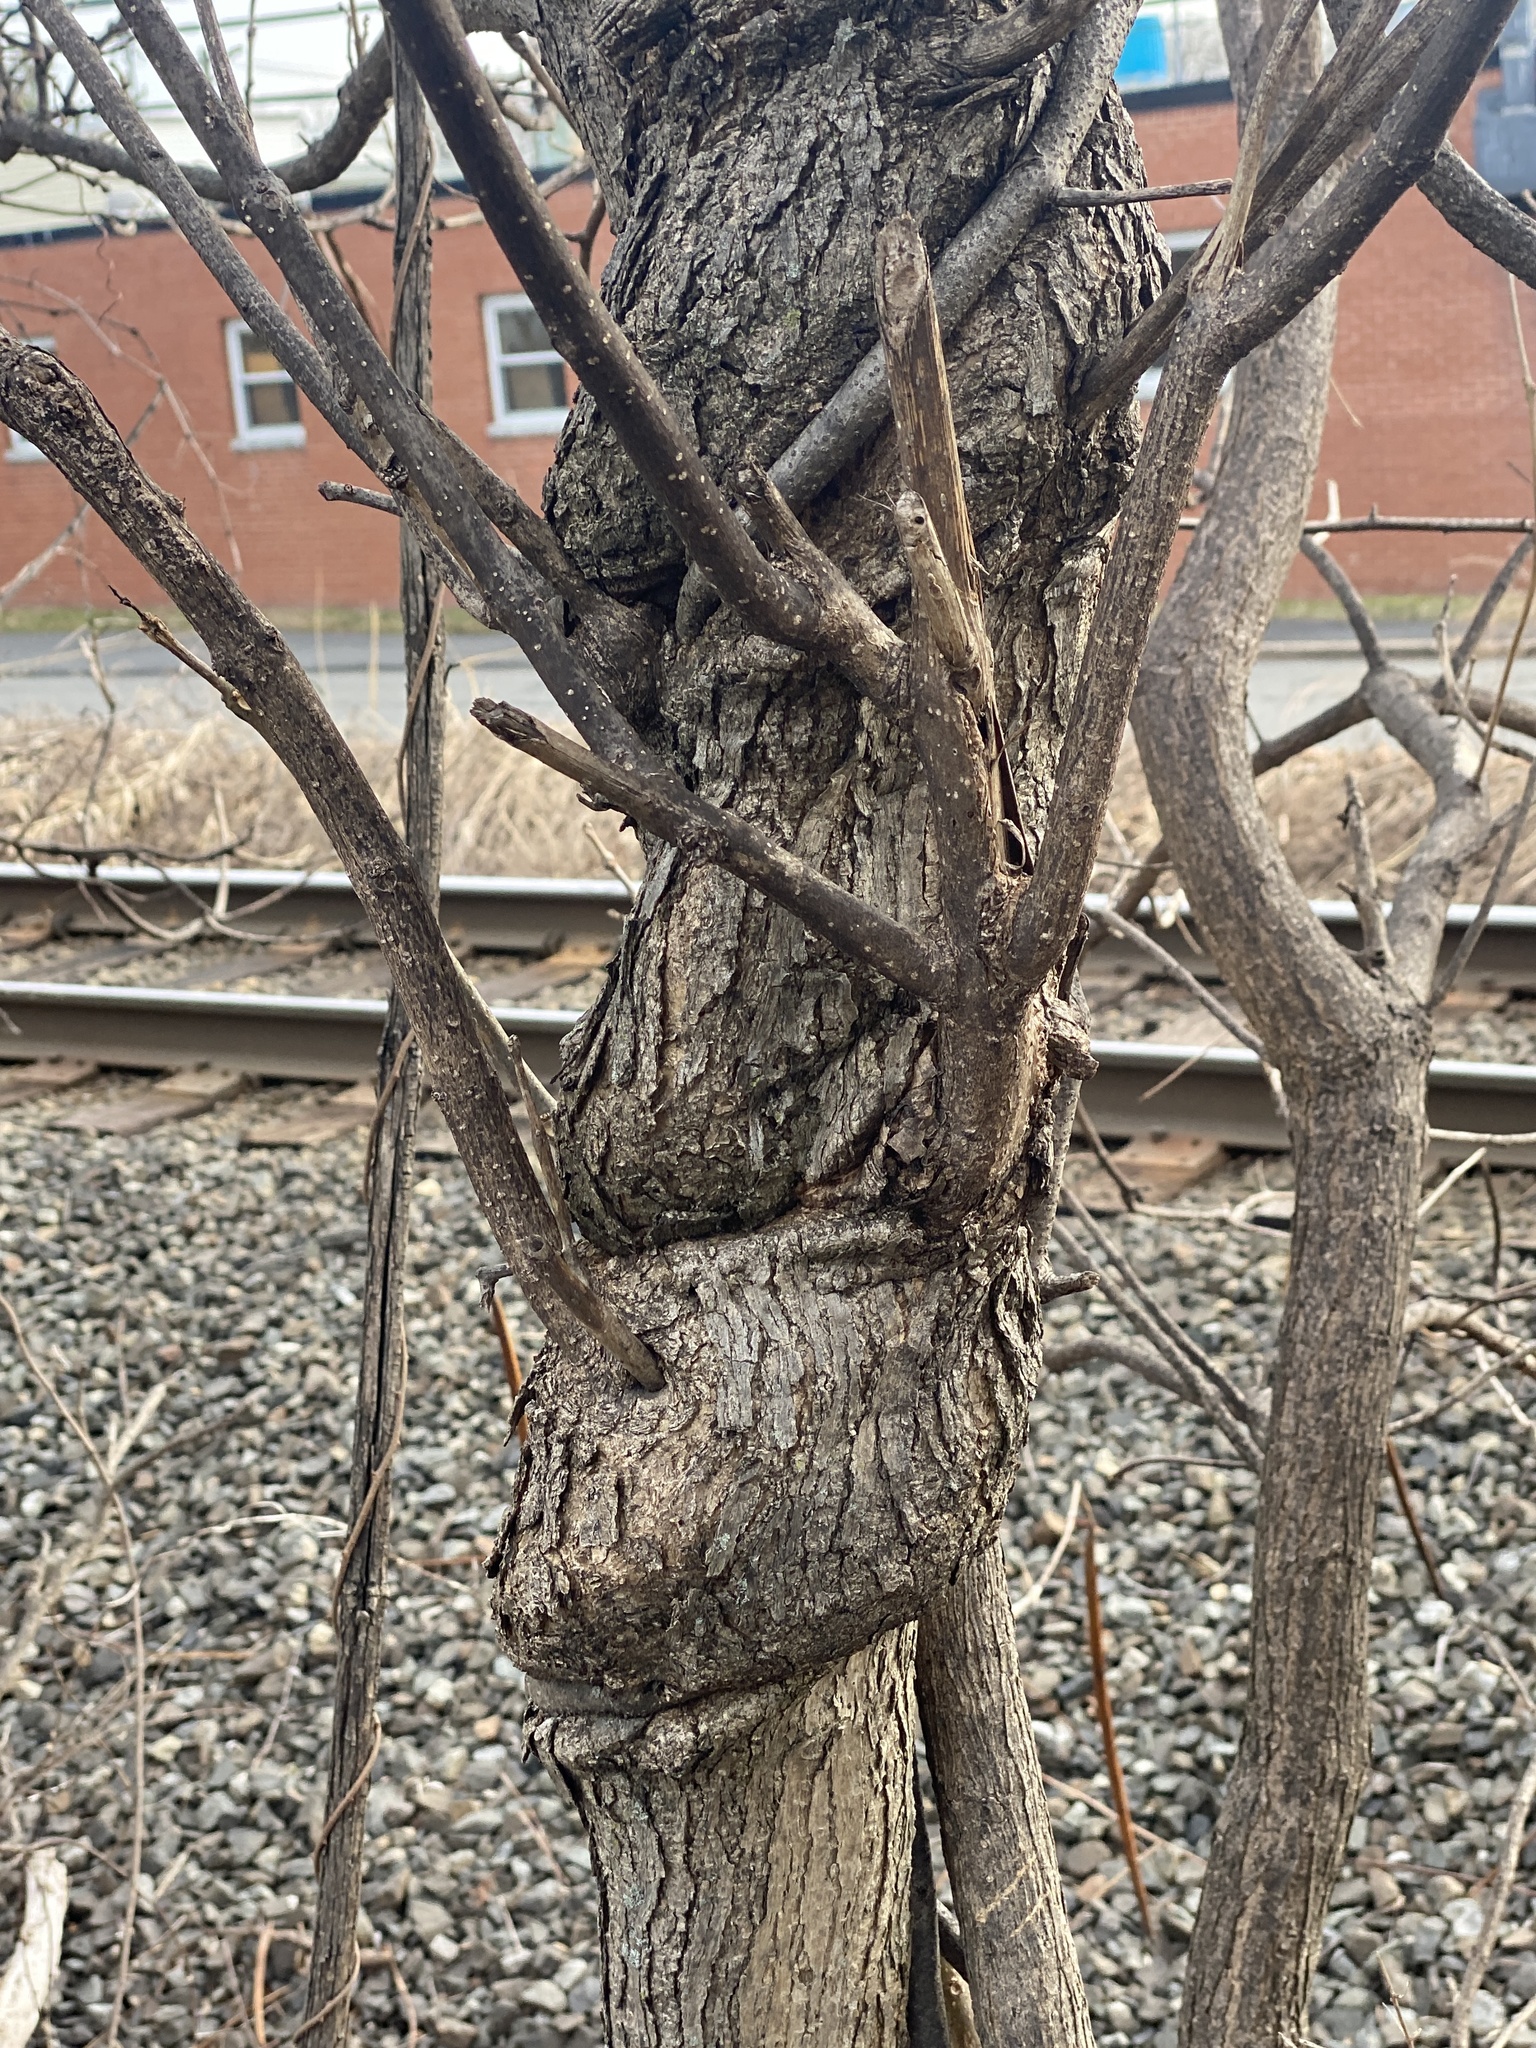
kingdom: Plantae
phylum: Tracheophyta
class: Magnoliopsida
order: Celastrales
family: Celastraceae
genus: Celastrus
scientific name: Celastrus orbiculatus
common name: Oriental bittersweet
